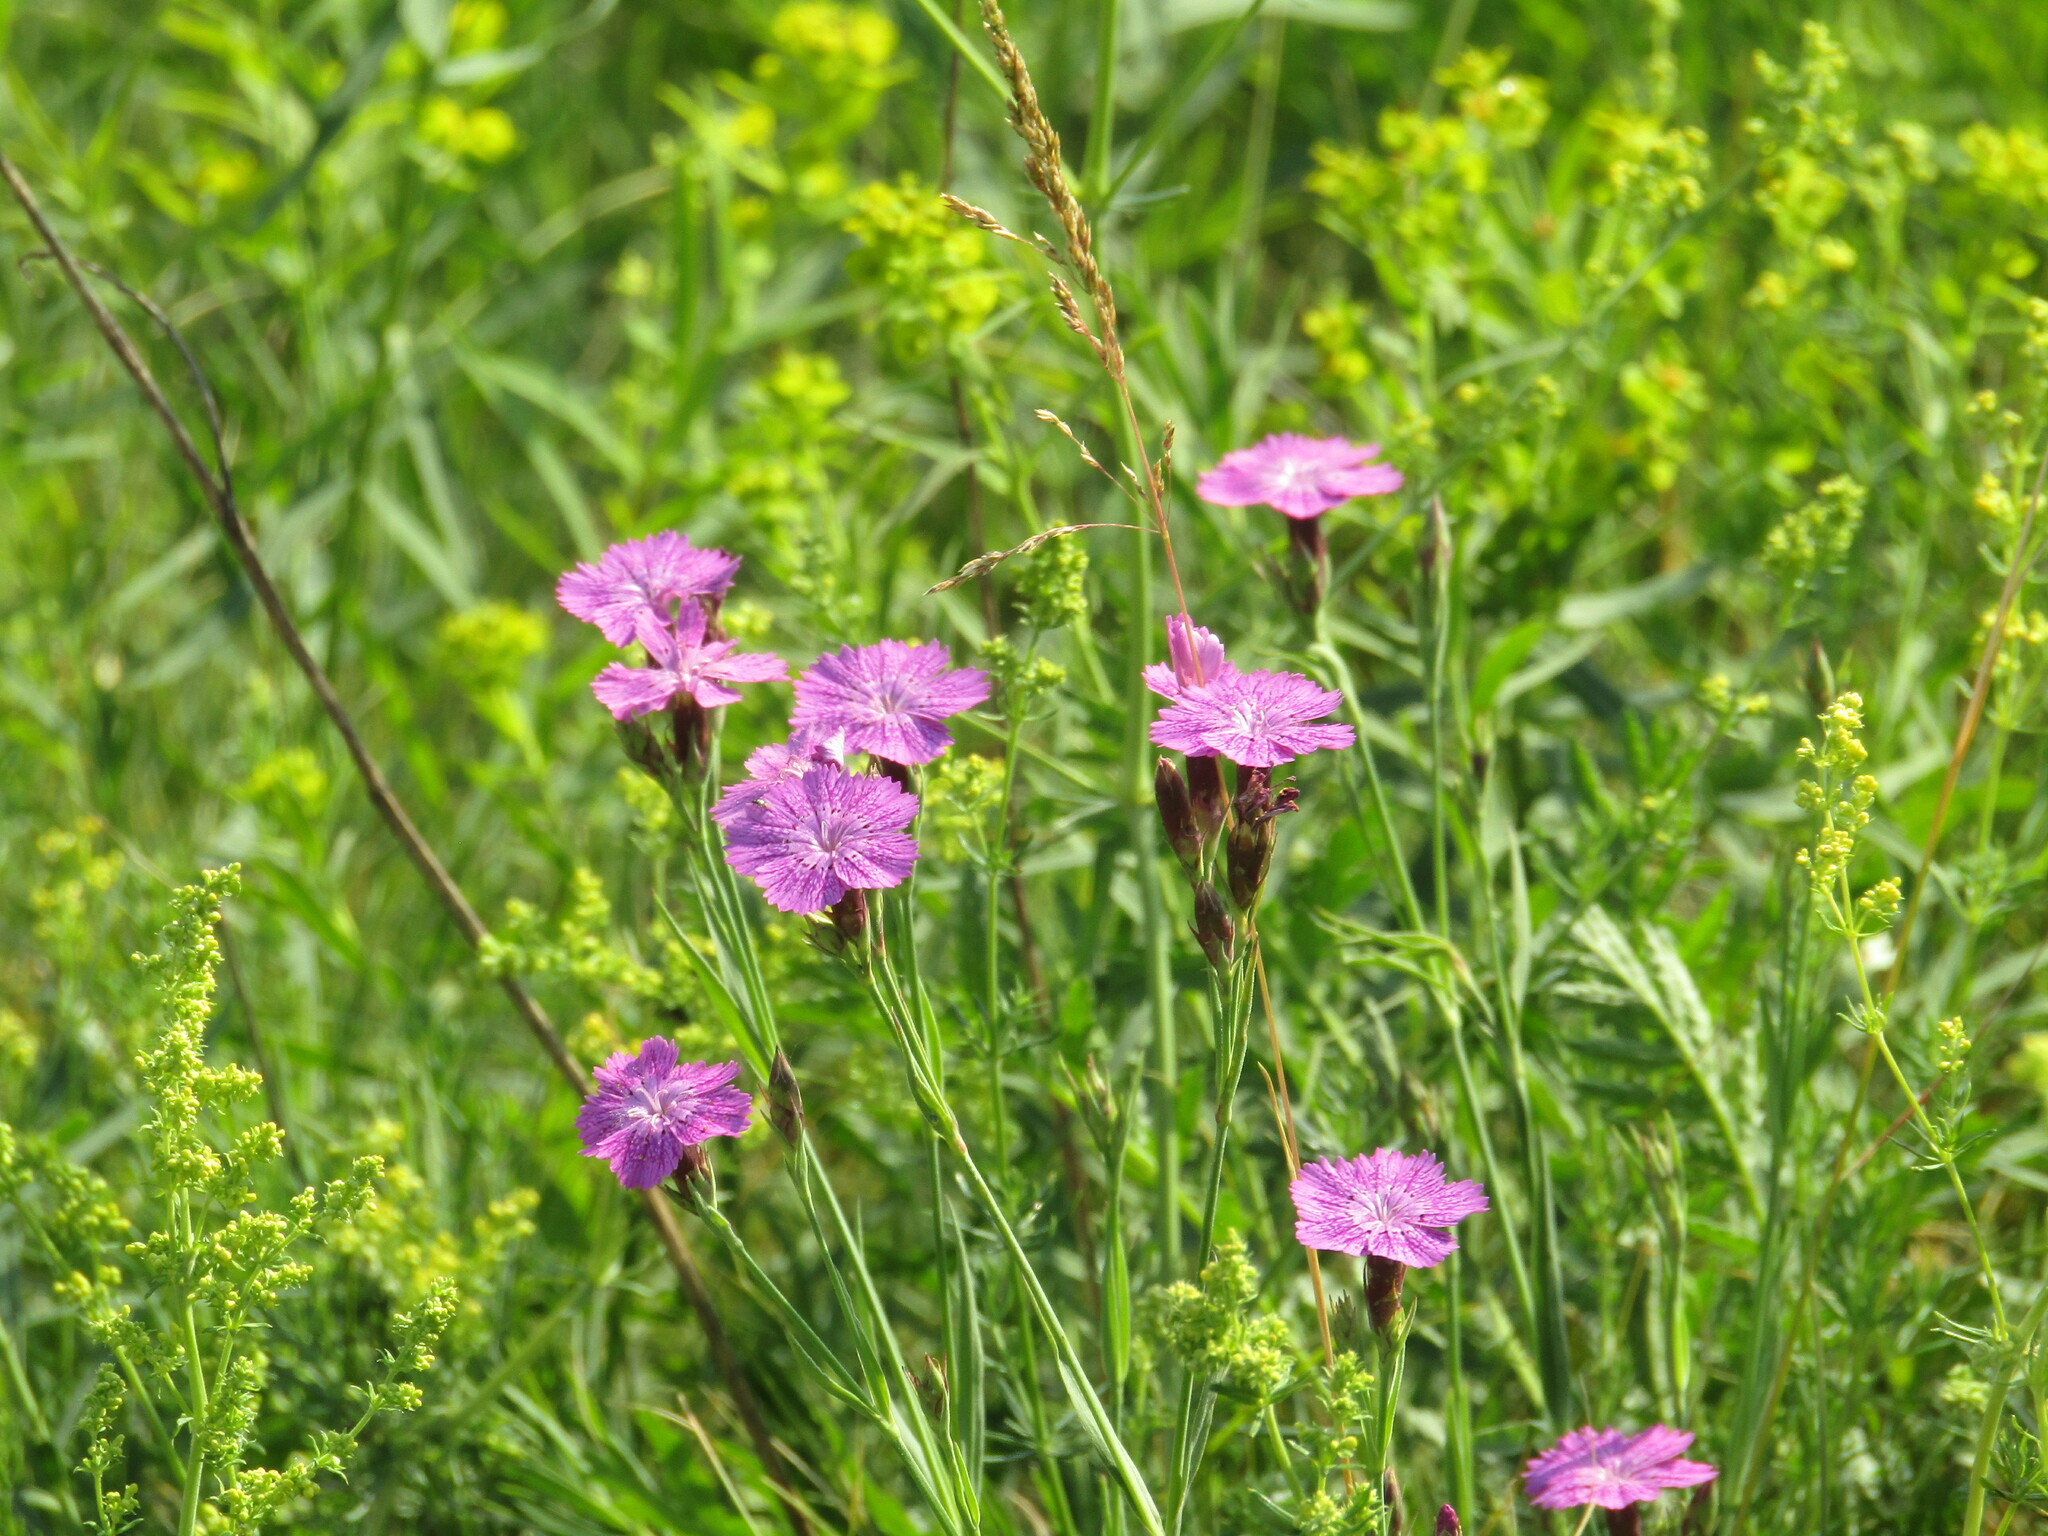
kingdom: Plantae
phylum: Tracheophyta
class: Magnoliopsida
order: Caryophyllales
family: Caryophyllaceae
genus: Dianthus
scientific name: Dianthus chinensis
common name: Rainbow pink
